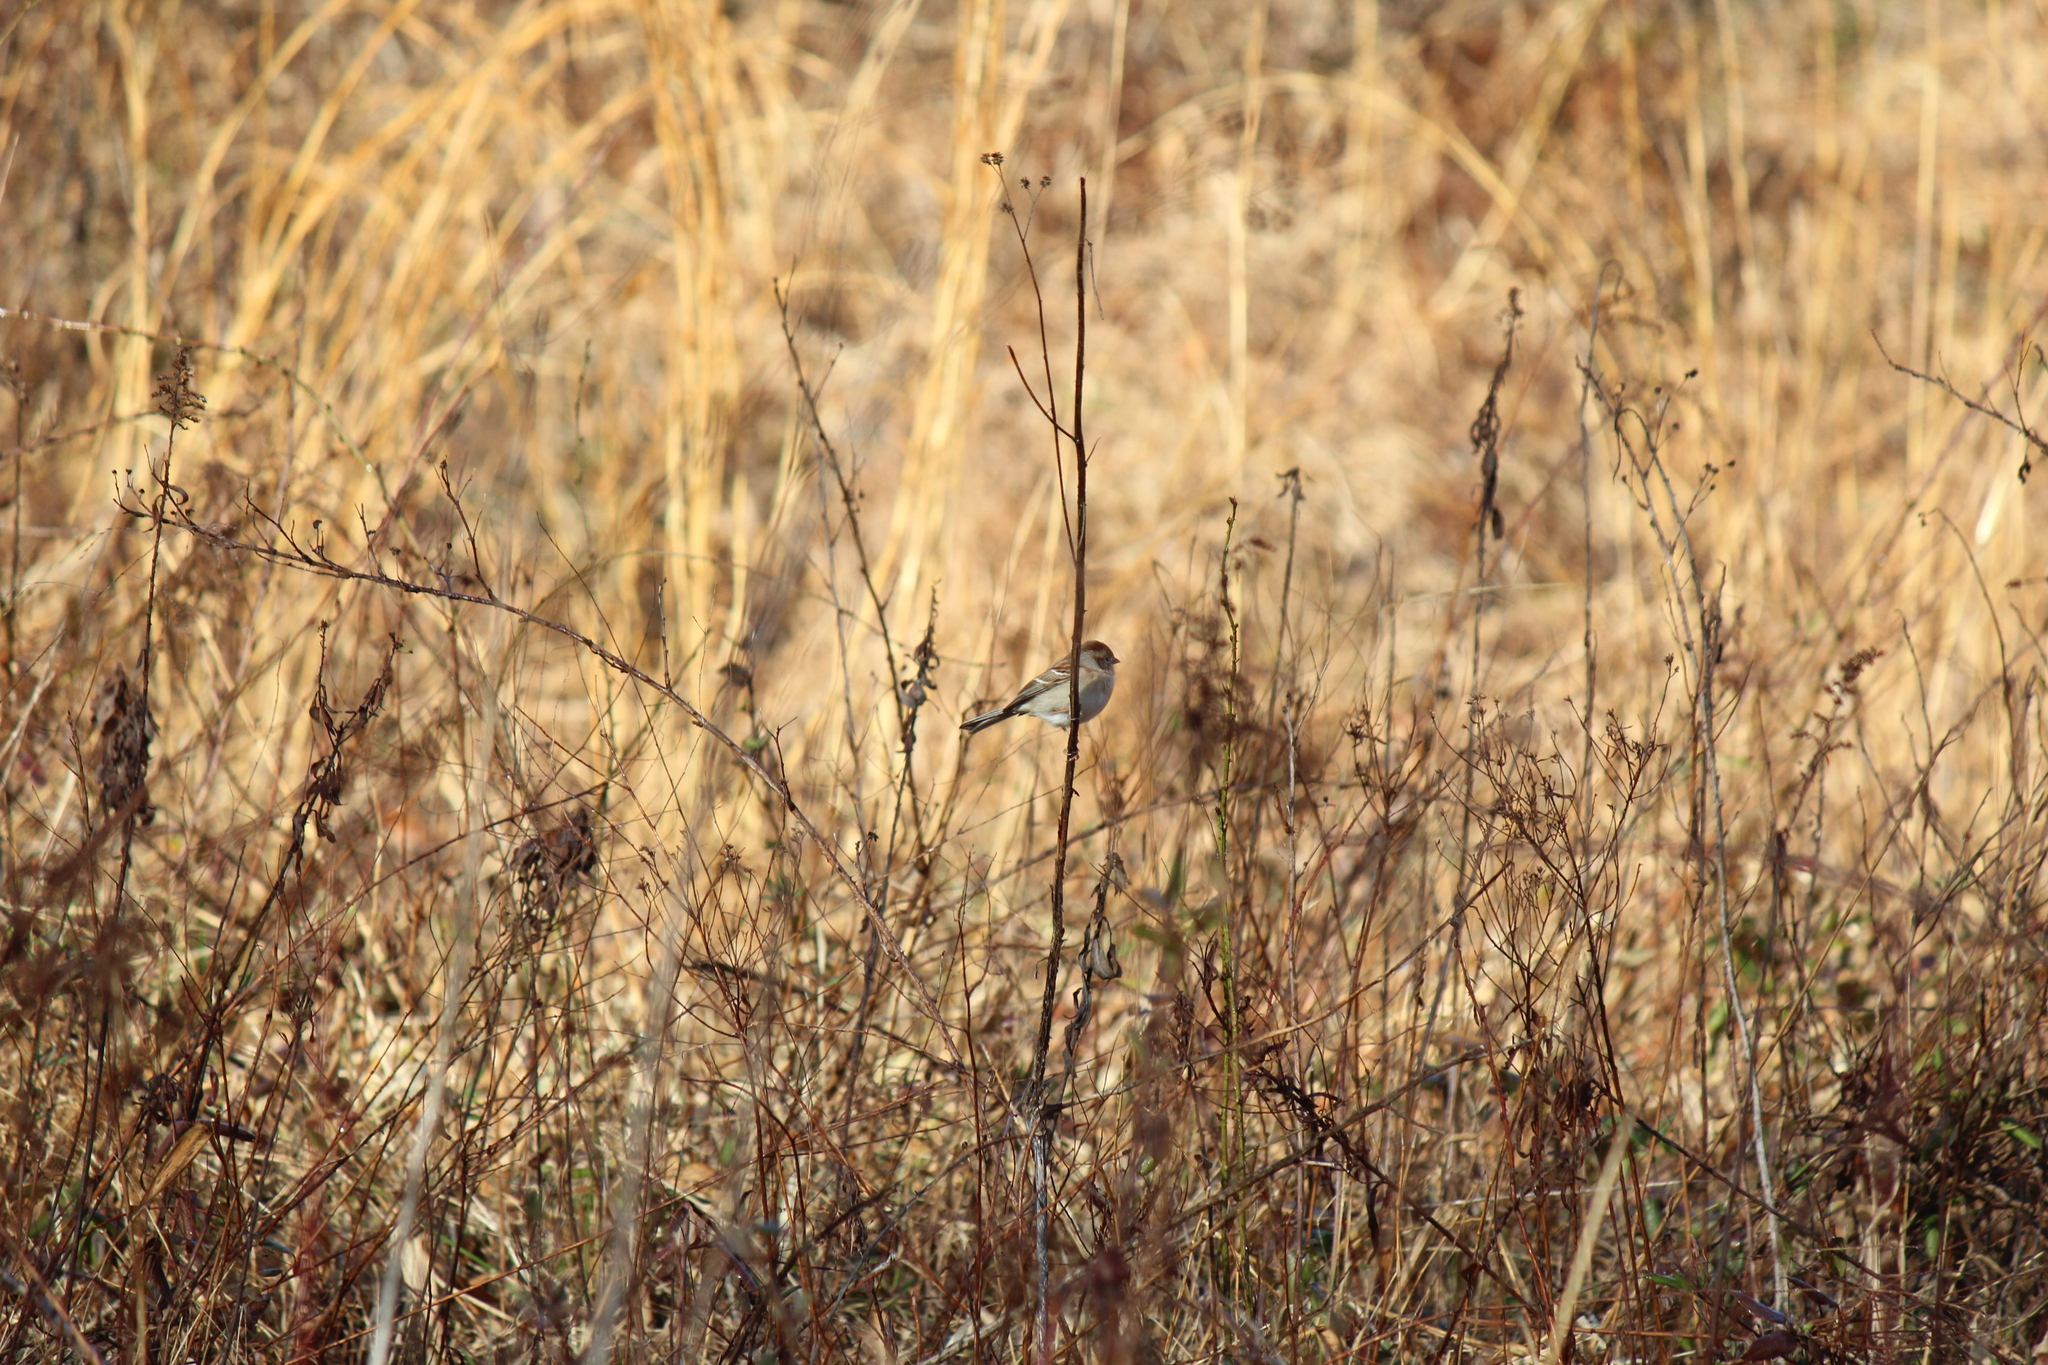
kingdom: Animalia
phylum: Chordata
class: Aves
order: Passeriformes
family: Passerellidae
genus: Spizella
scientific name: Spizella pusilla
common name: Field sparrow
